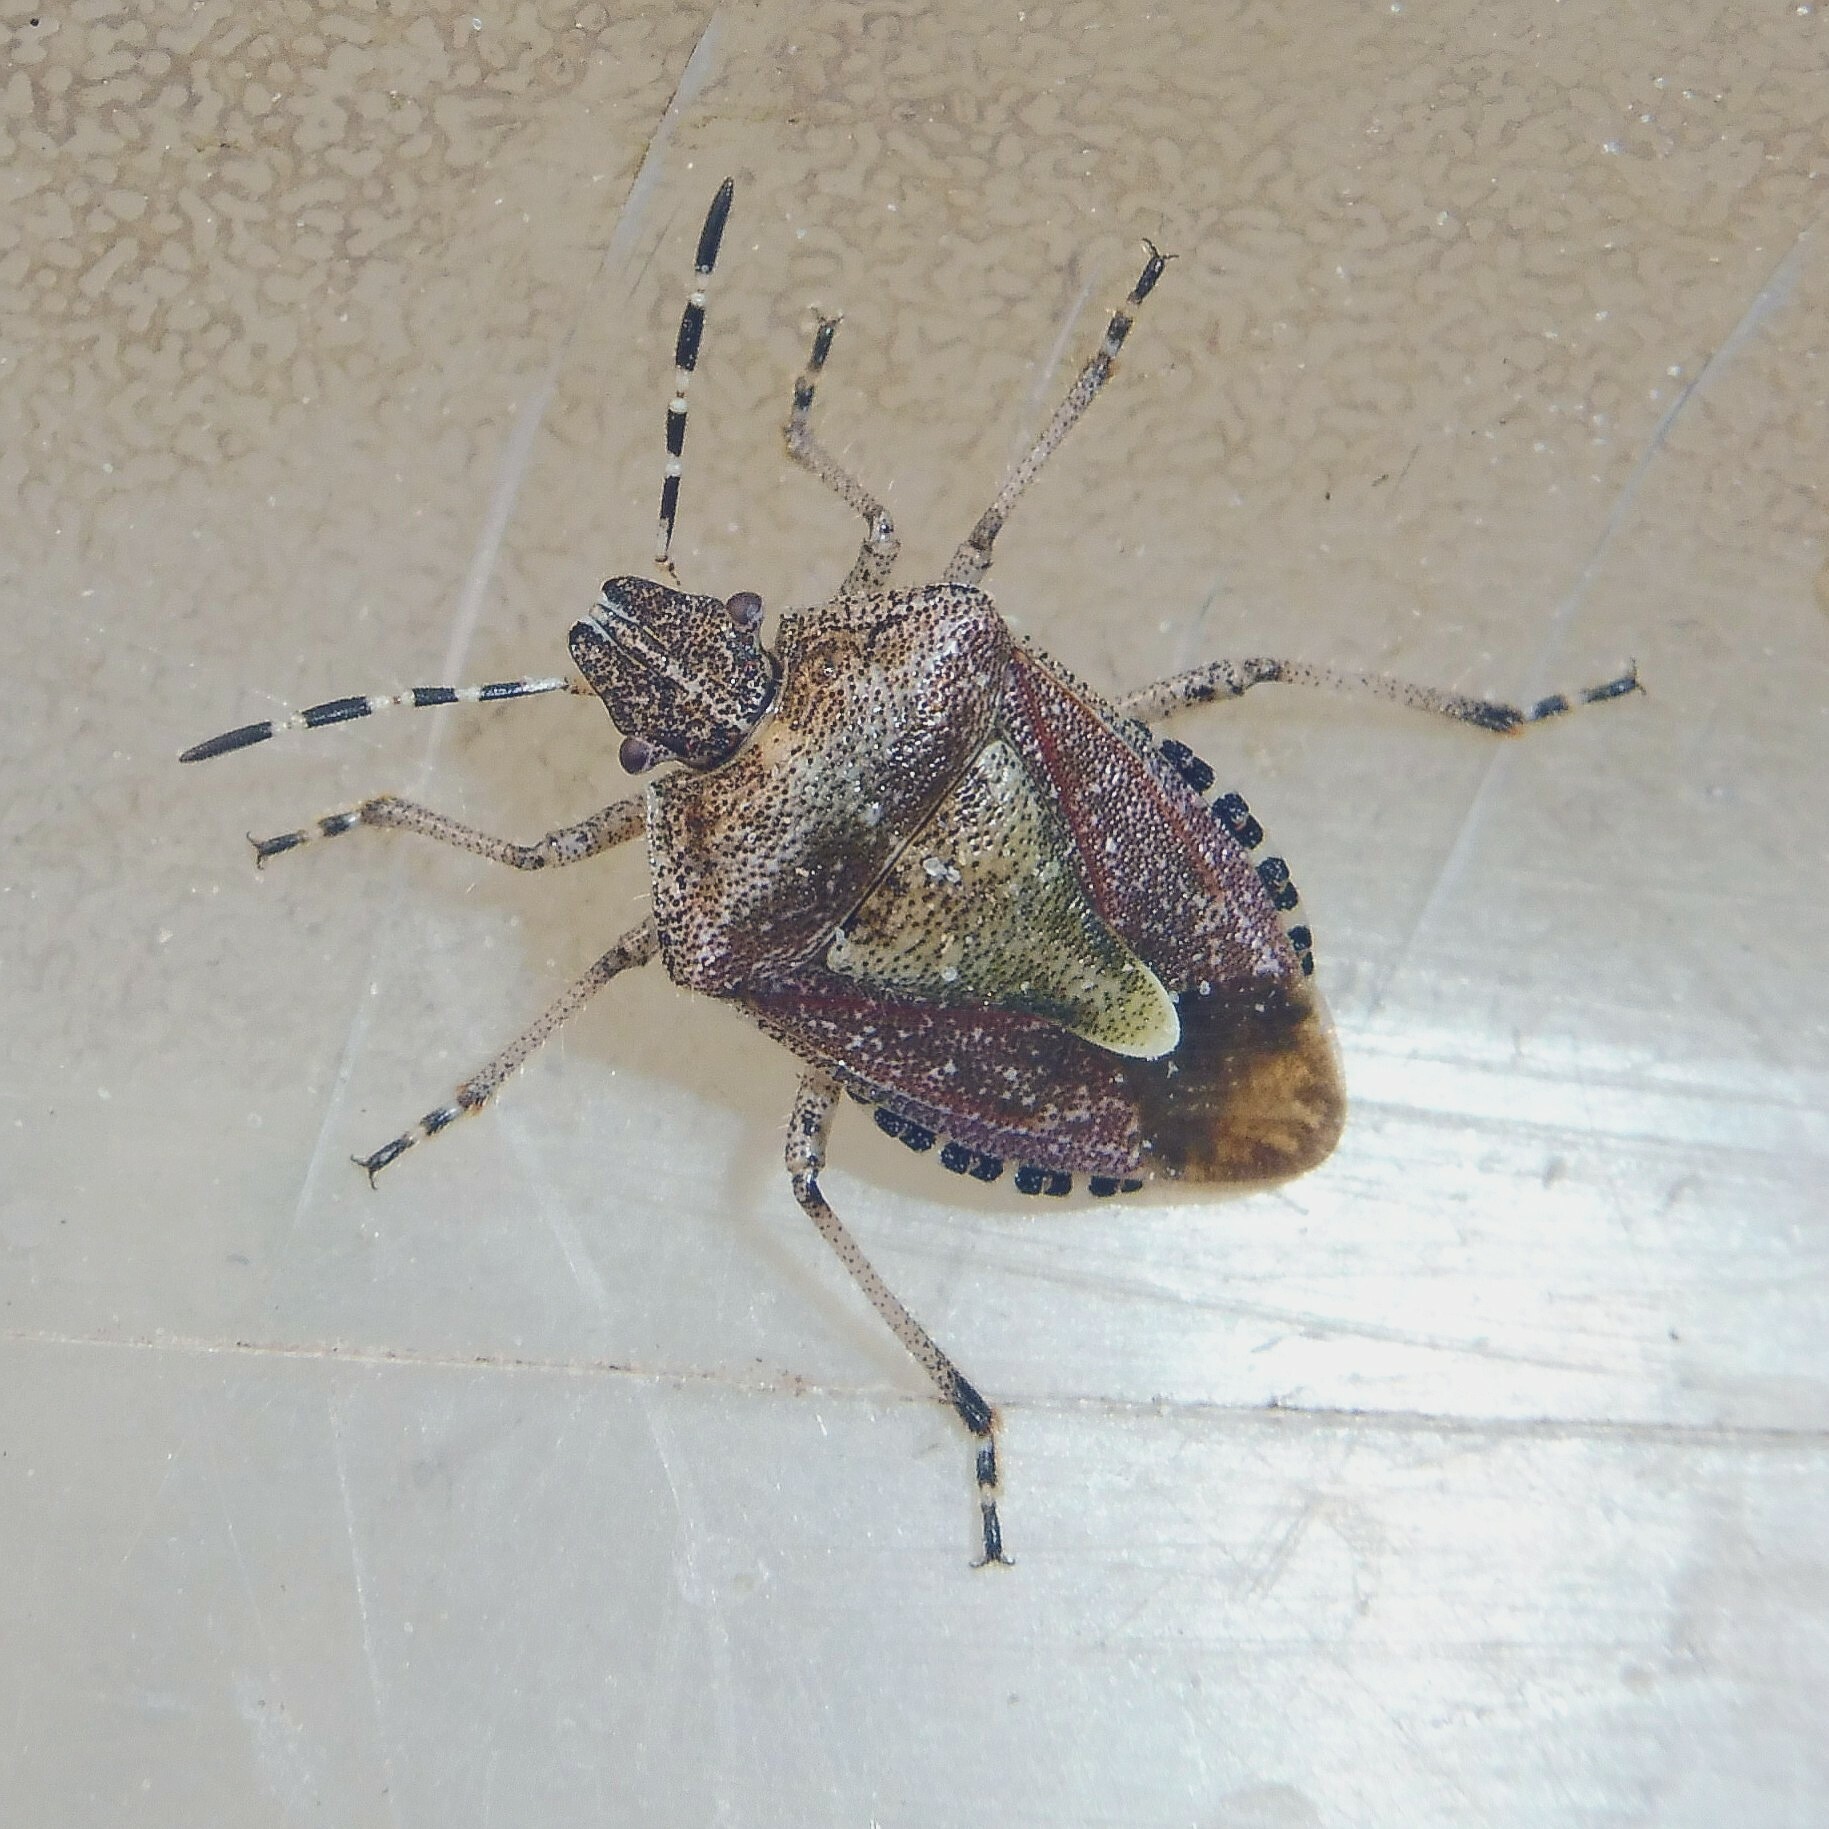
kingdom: Animalia
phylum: Arthropoda
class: Insecta
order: Hemiptera
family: Pentatomidae
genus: Dolycoris
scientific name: Dolycoris baccarum
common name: Sloe bug
